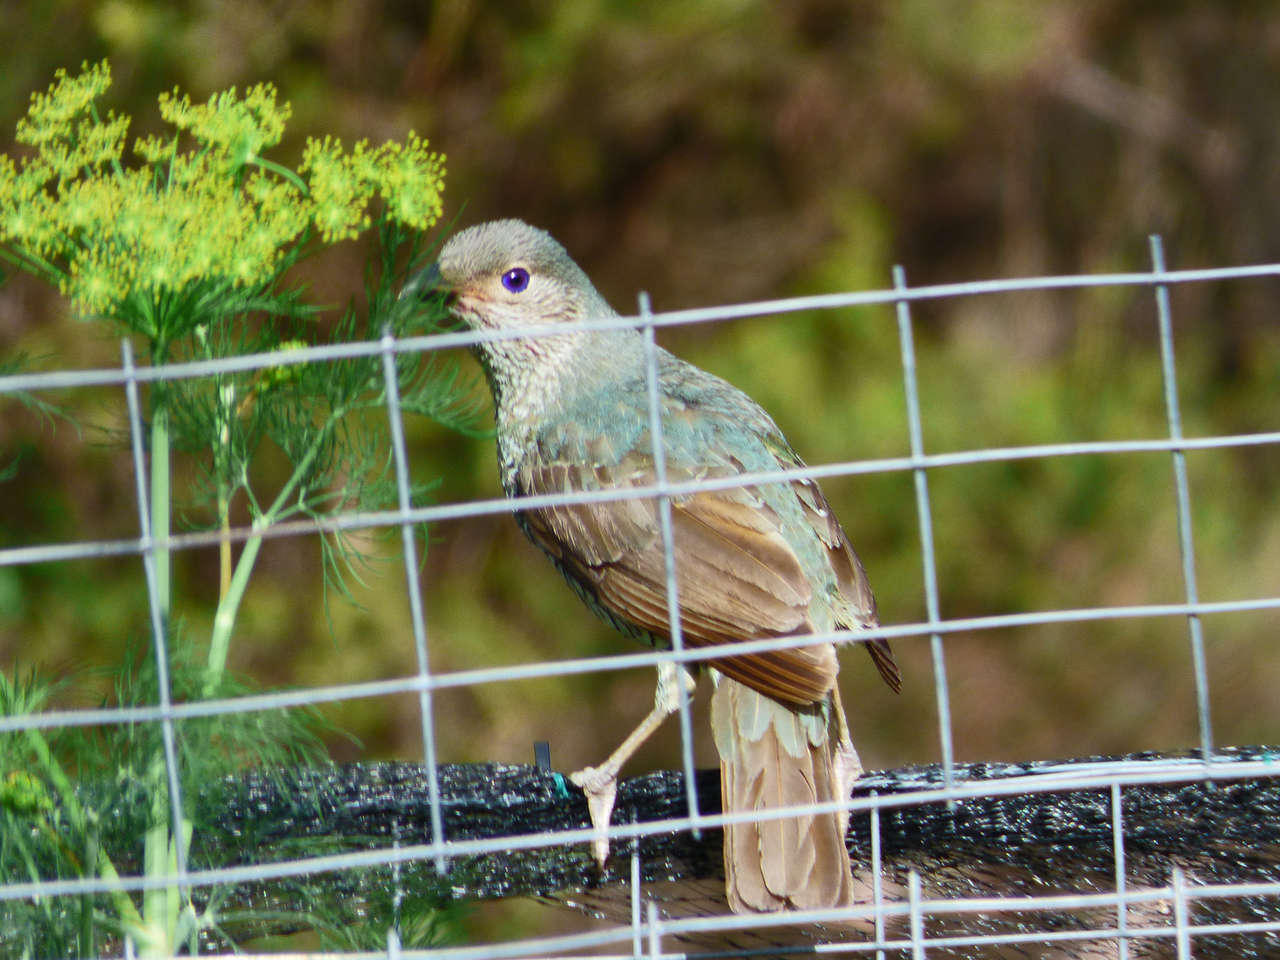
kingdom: Animalia
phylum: Chordata
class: Aves
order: Passeriformes
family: Ptilonorhynchidae
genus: Ptilonorhynchus
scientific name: Ptilonorhynchus violaceus
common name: Satin bowerbird
